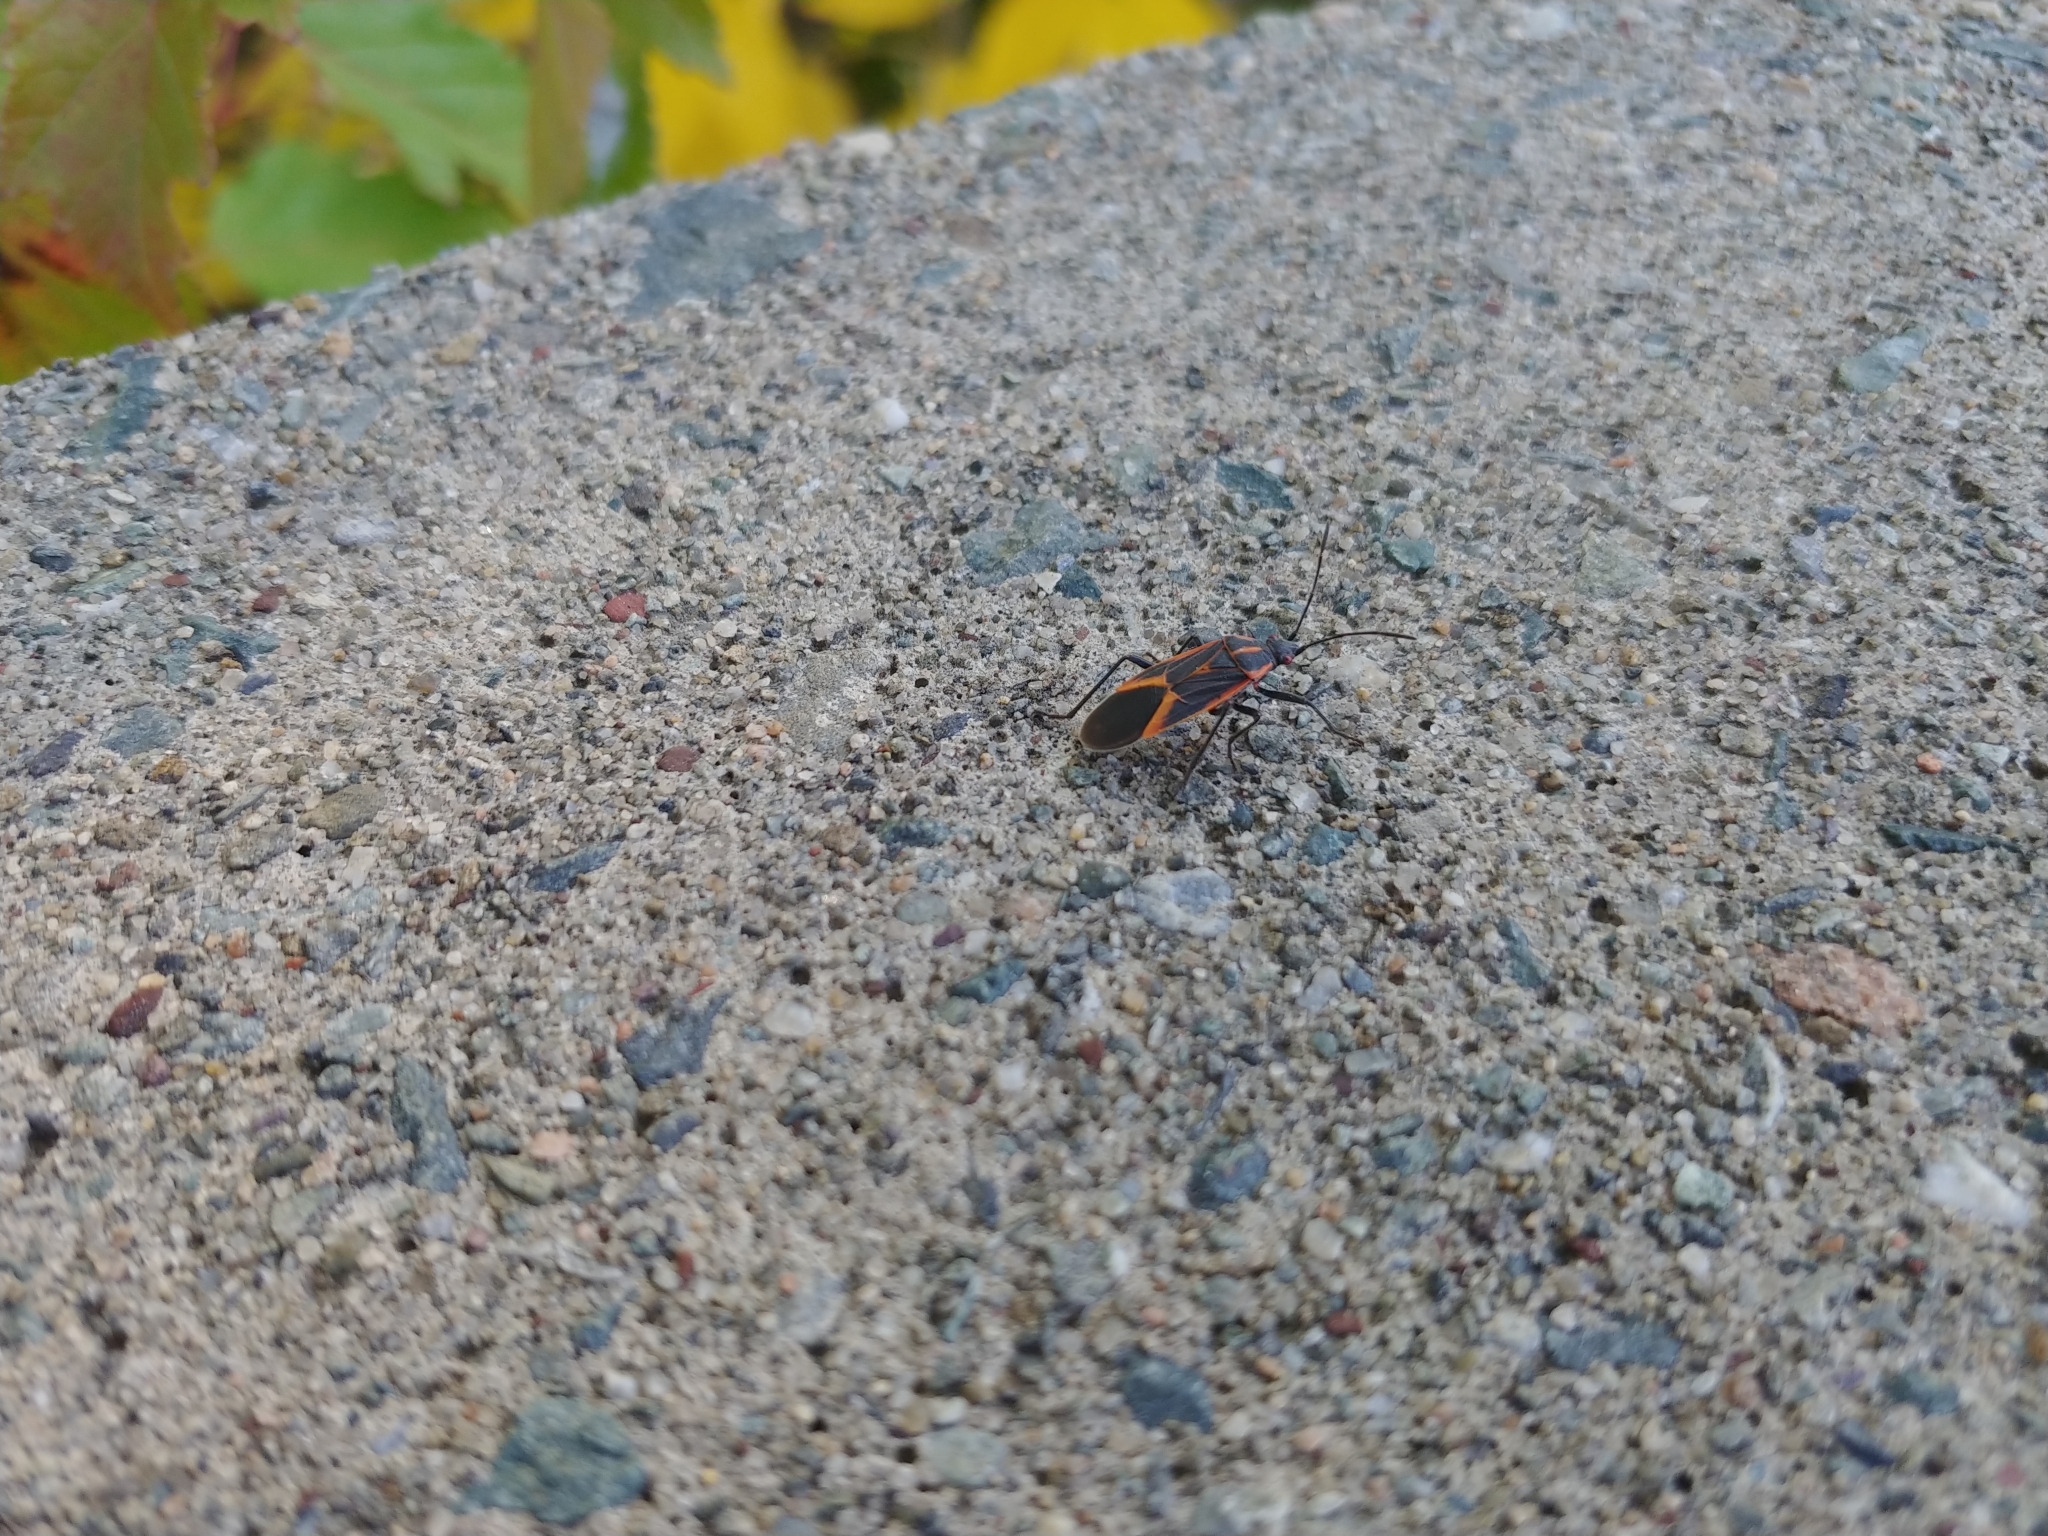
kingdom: Animalia
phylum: Arthropoda
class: Insecta
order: Hemiptera
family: Rhopalidae
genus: Boisea
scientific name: Boisea trivittata
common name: Boxelder bug
